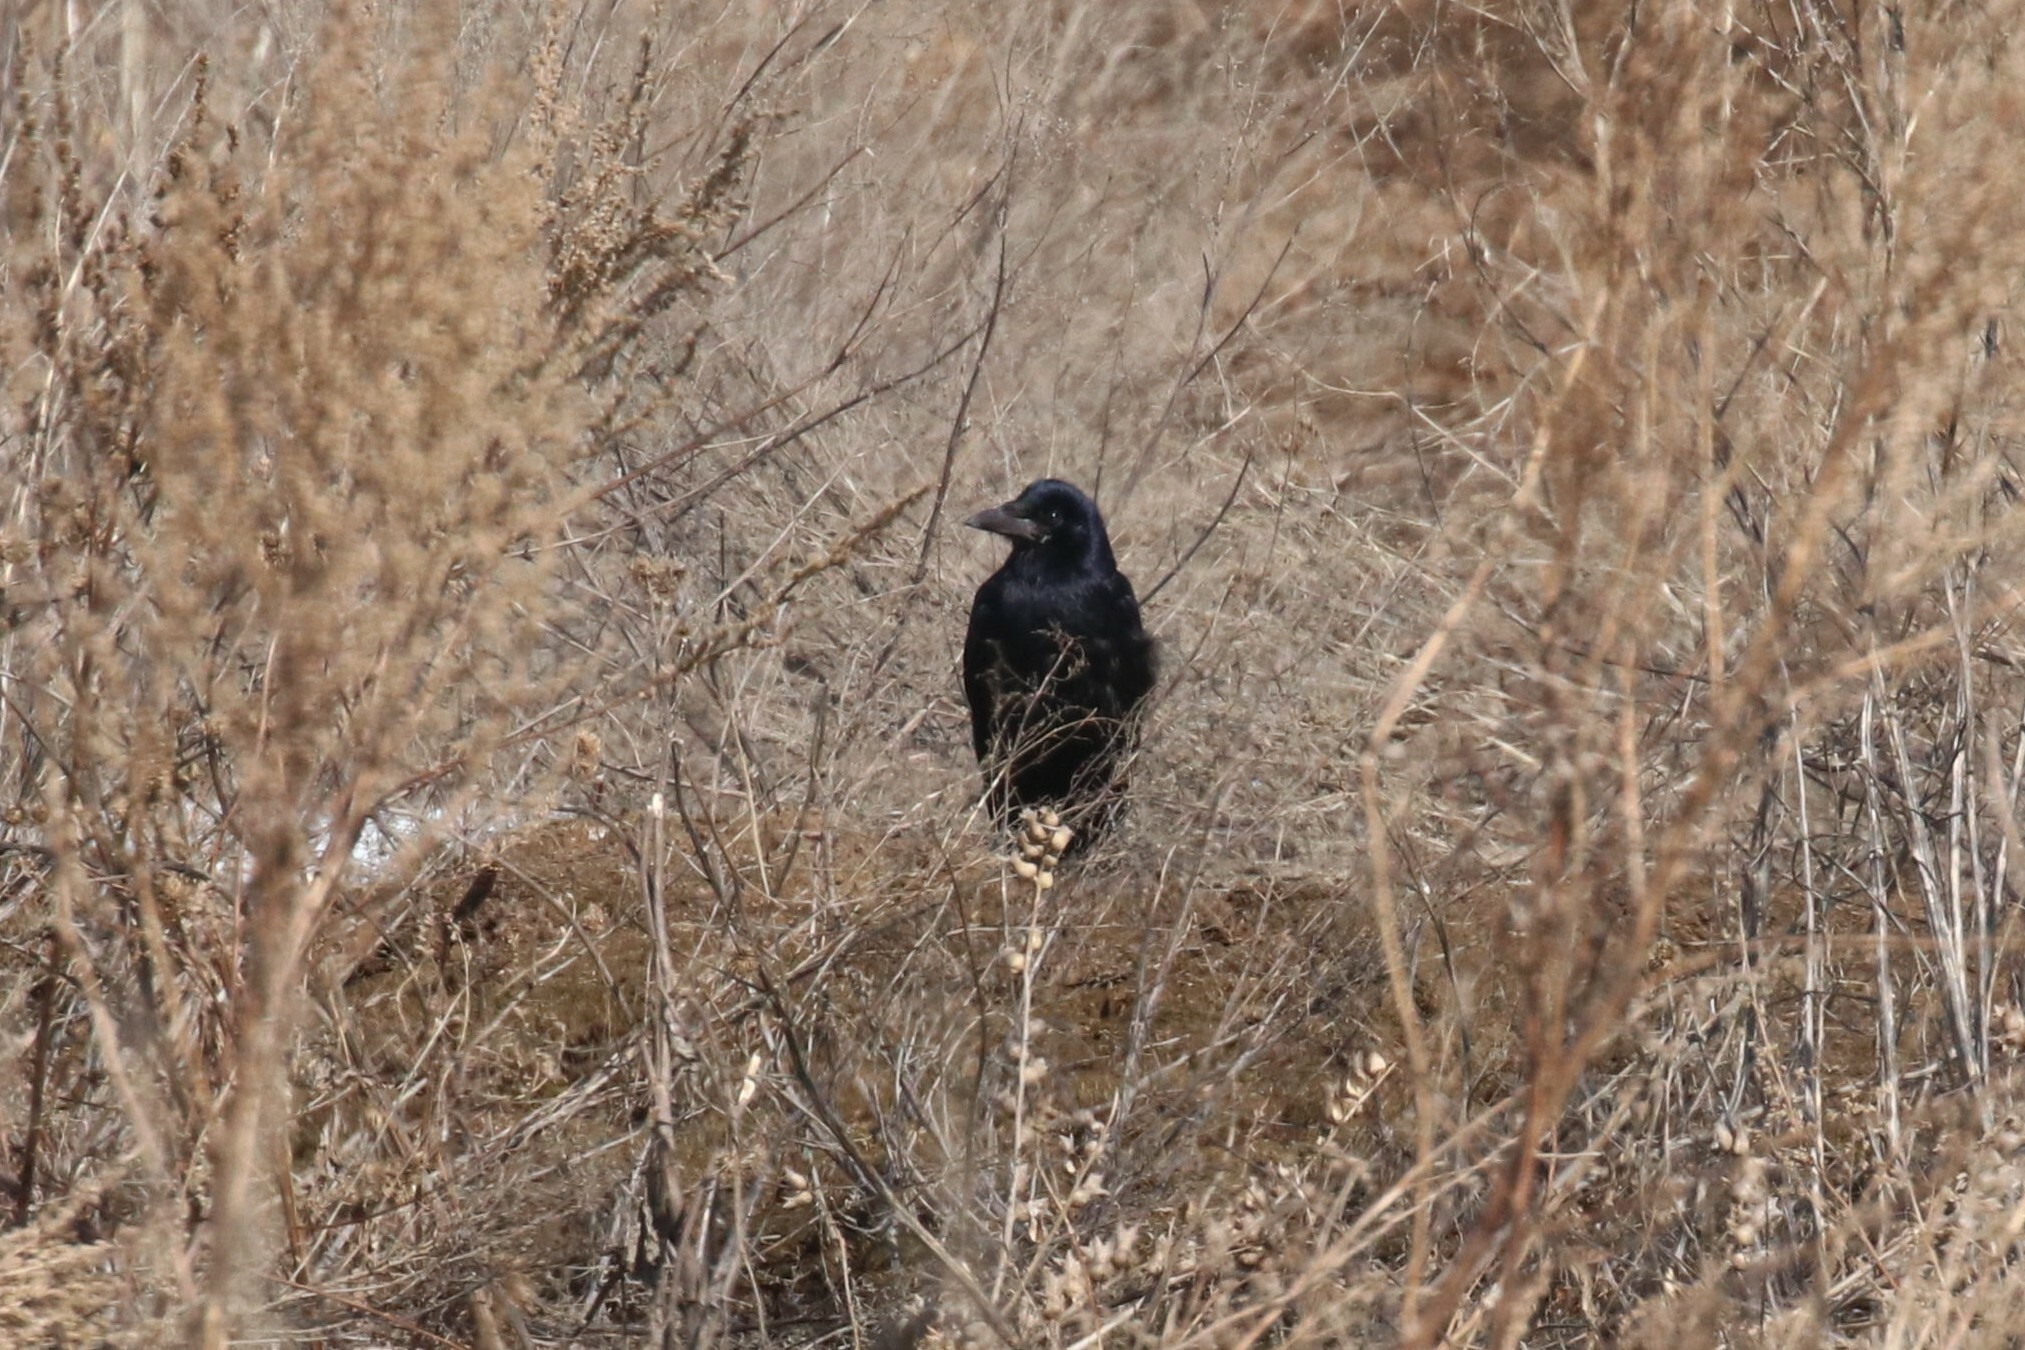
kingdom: Animalia
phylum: Chordata
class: Aves
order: Passeriformes
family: Corvidae
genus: Corvus
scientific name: Corvus frugilegus
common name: Rook
